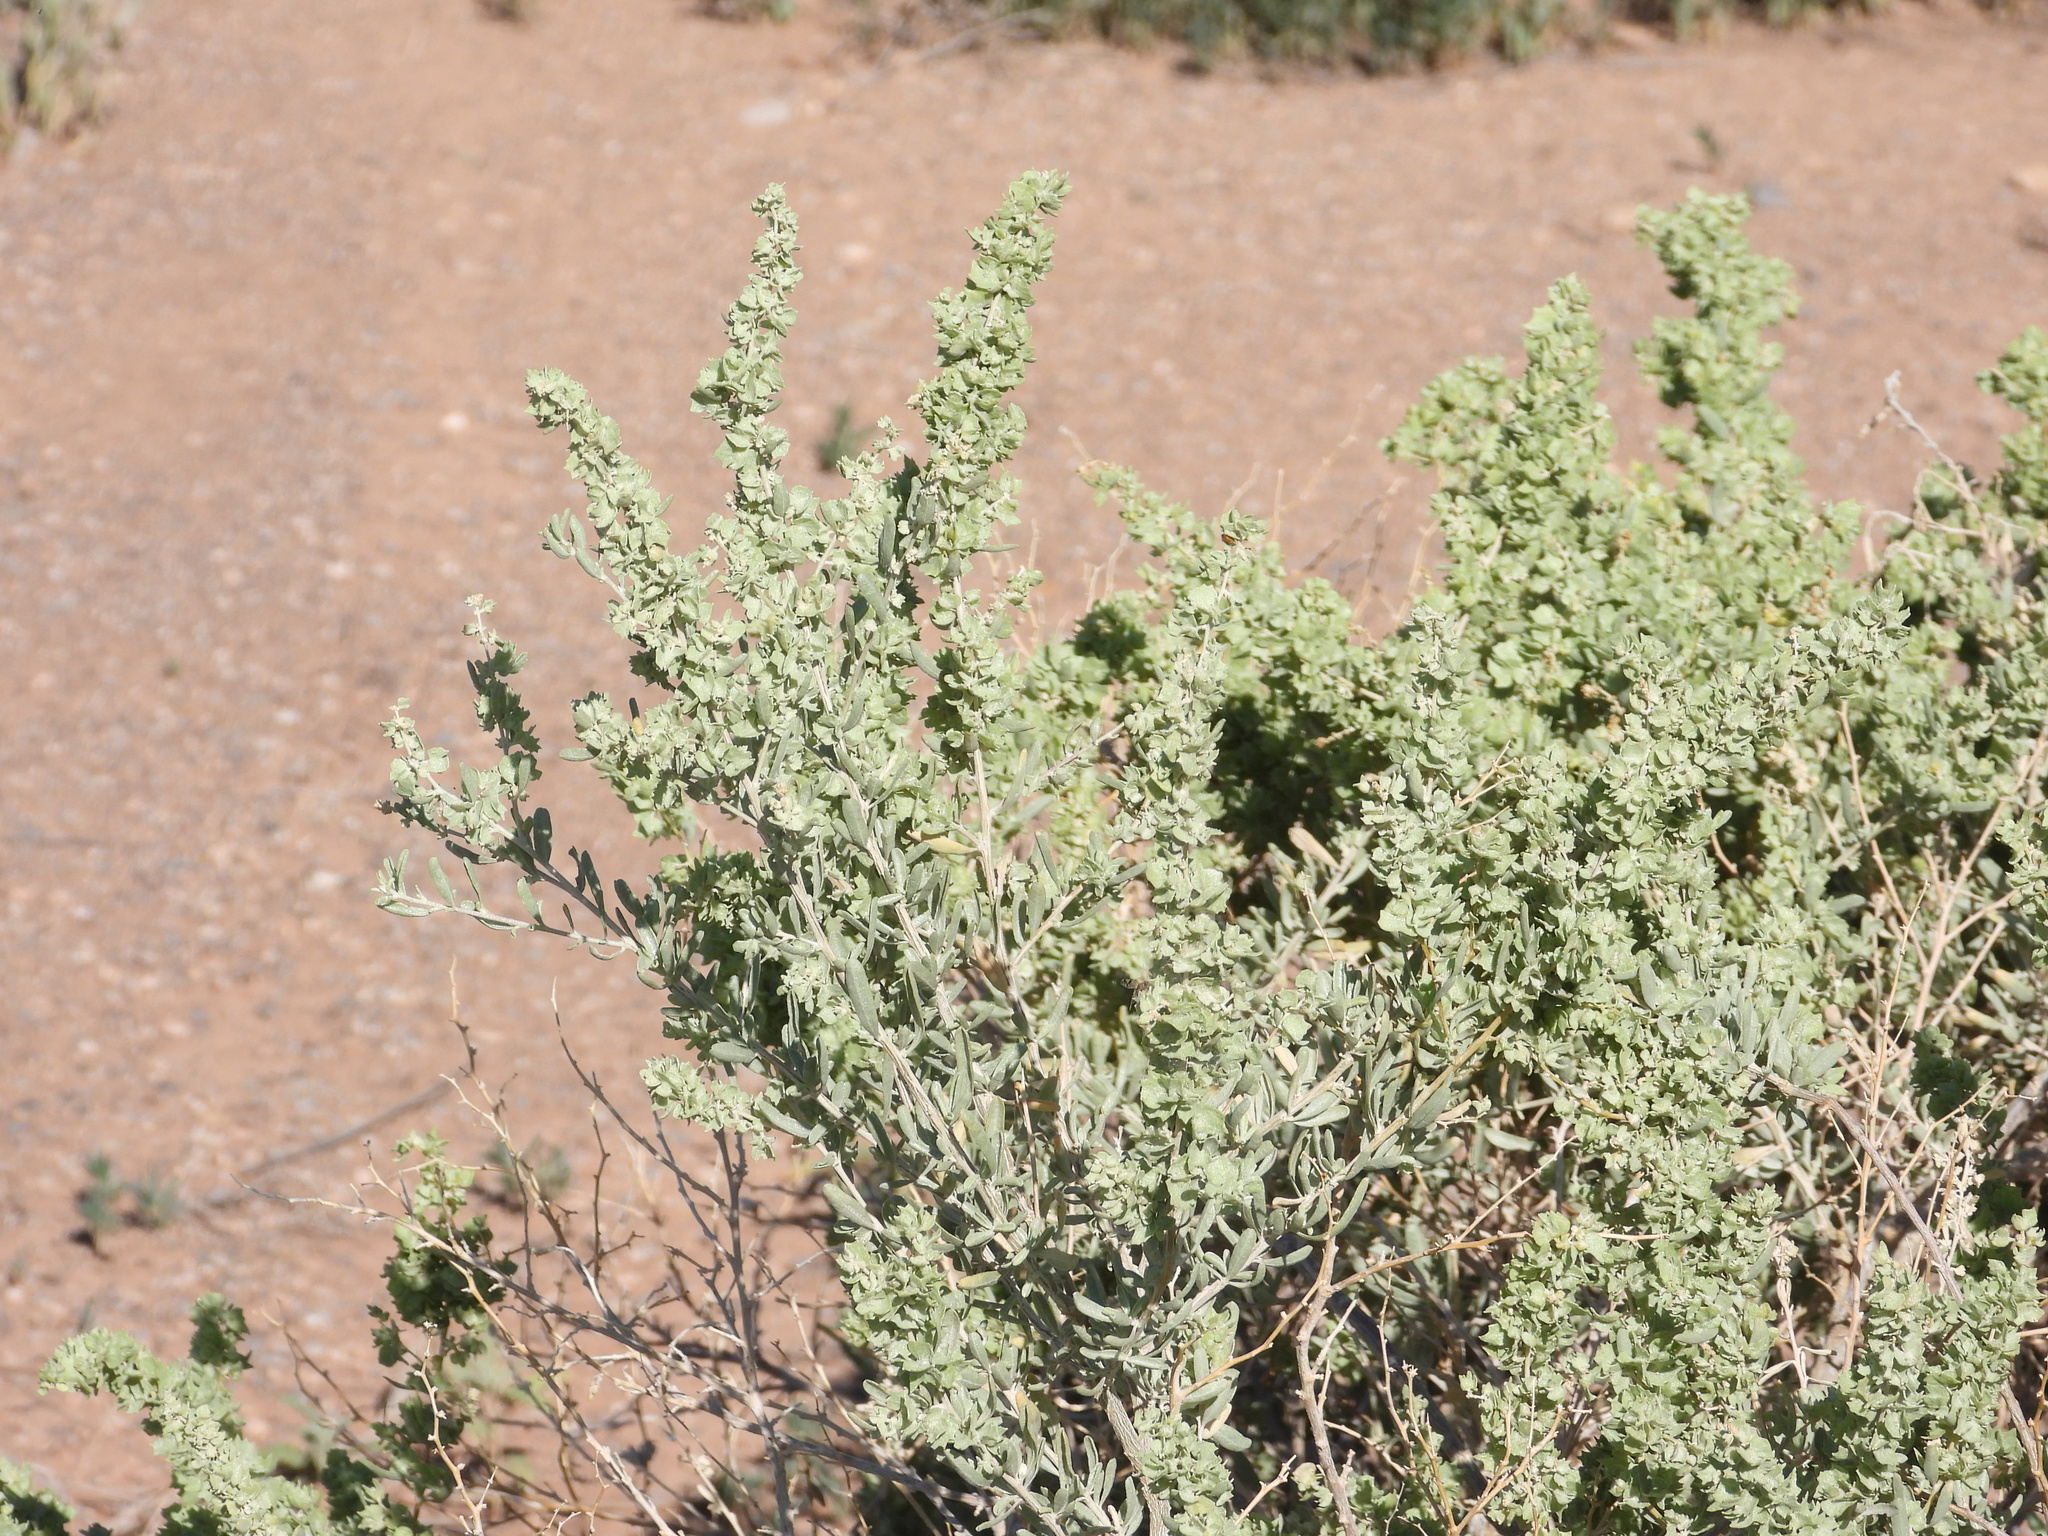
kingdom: Plantae
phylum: Tracheophyta
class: Magnoliopsida
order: Caryophyllales
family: Amaranthaceae
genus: Atriplex
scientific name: Atriplex canescens
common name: Four-wing saltbush
